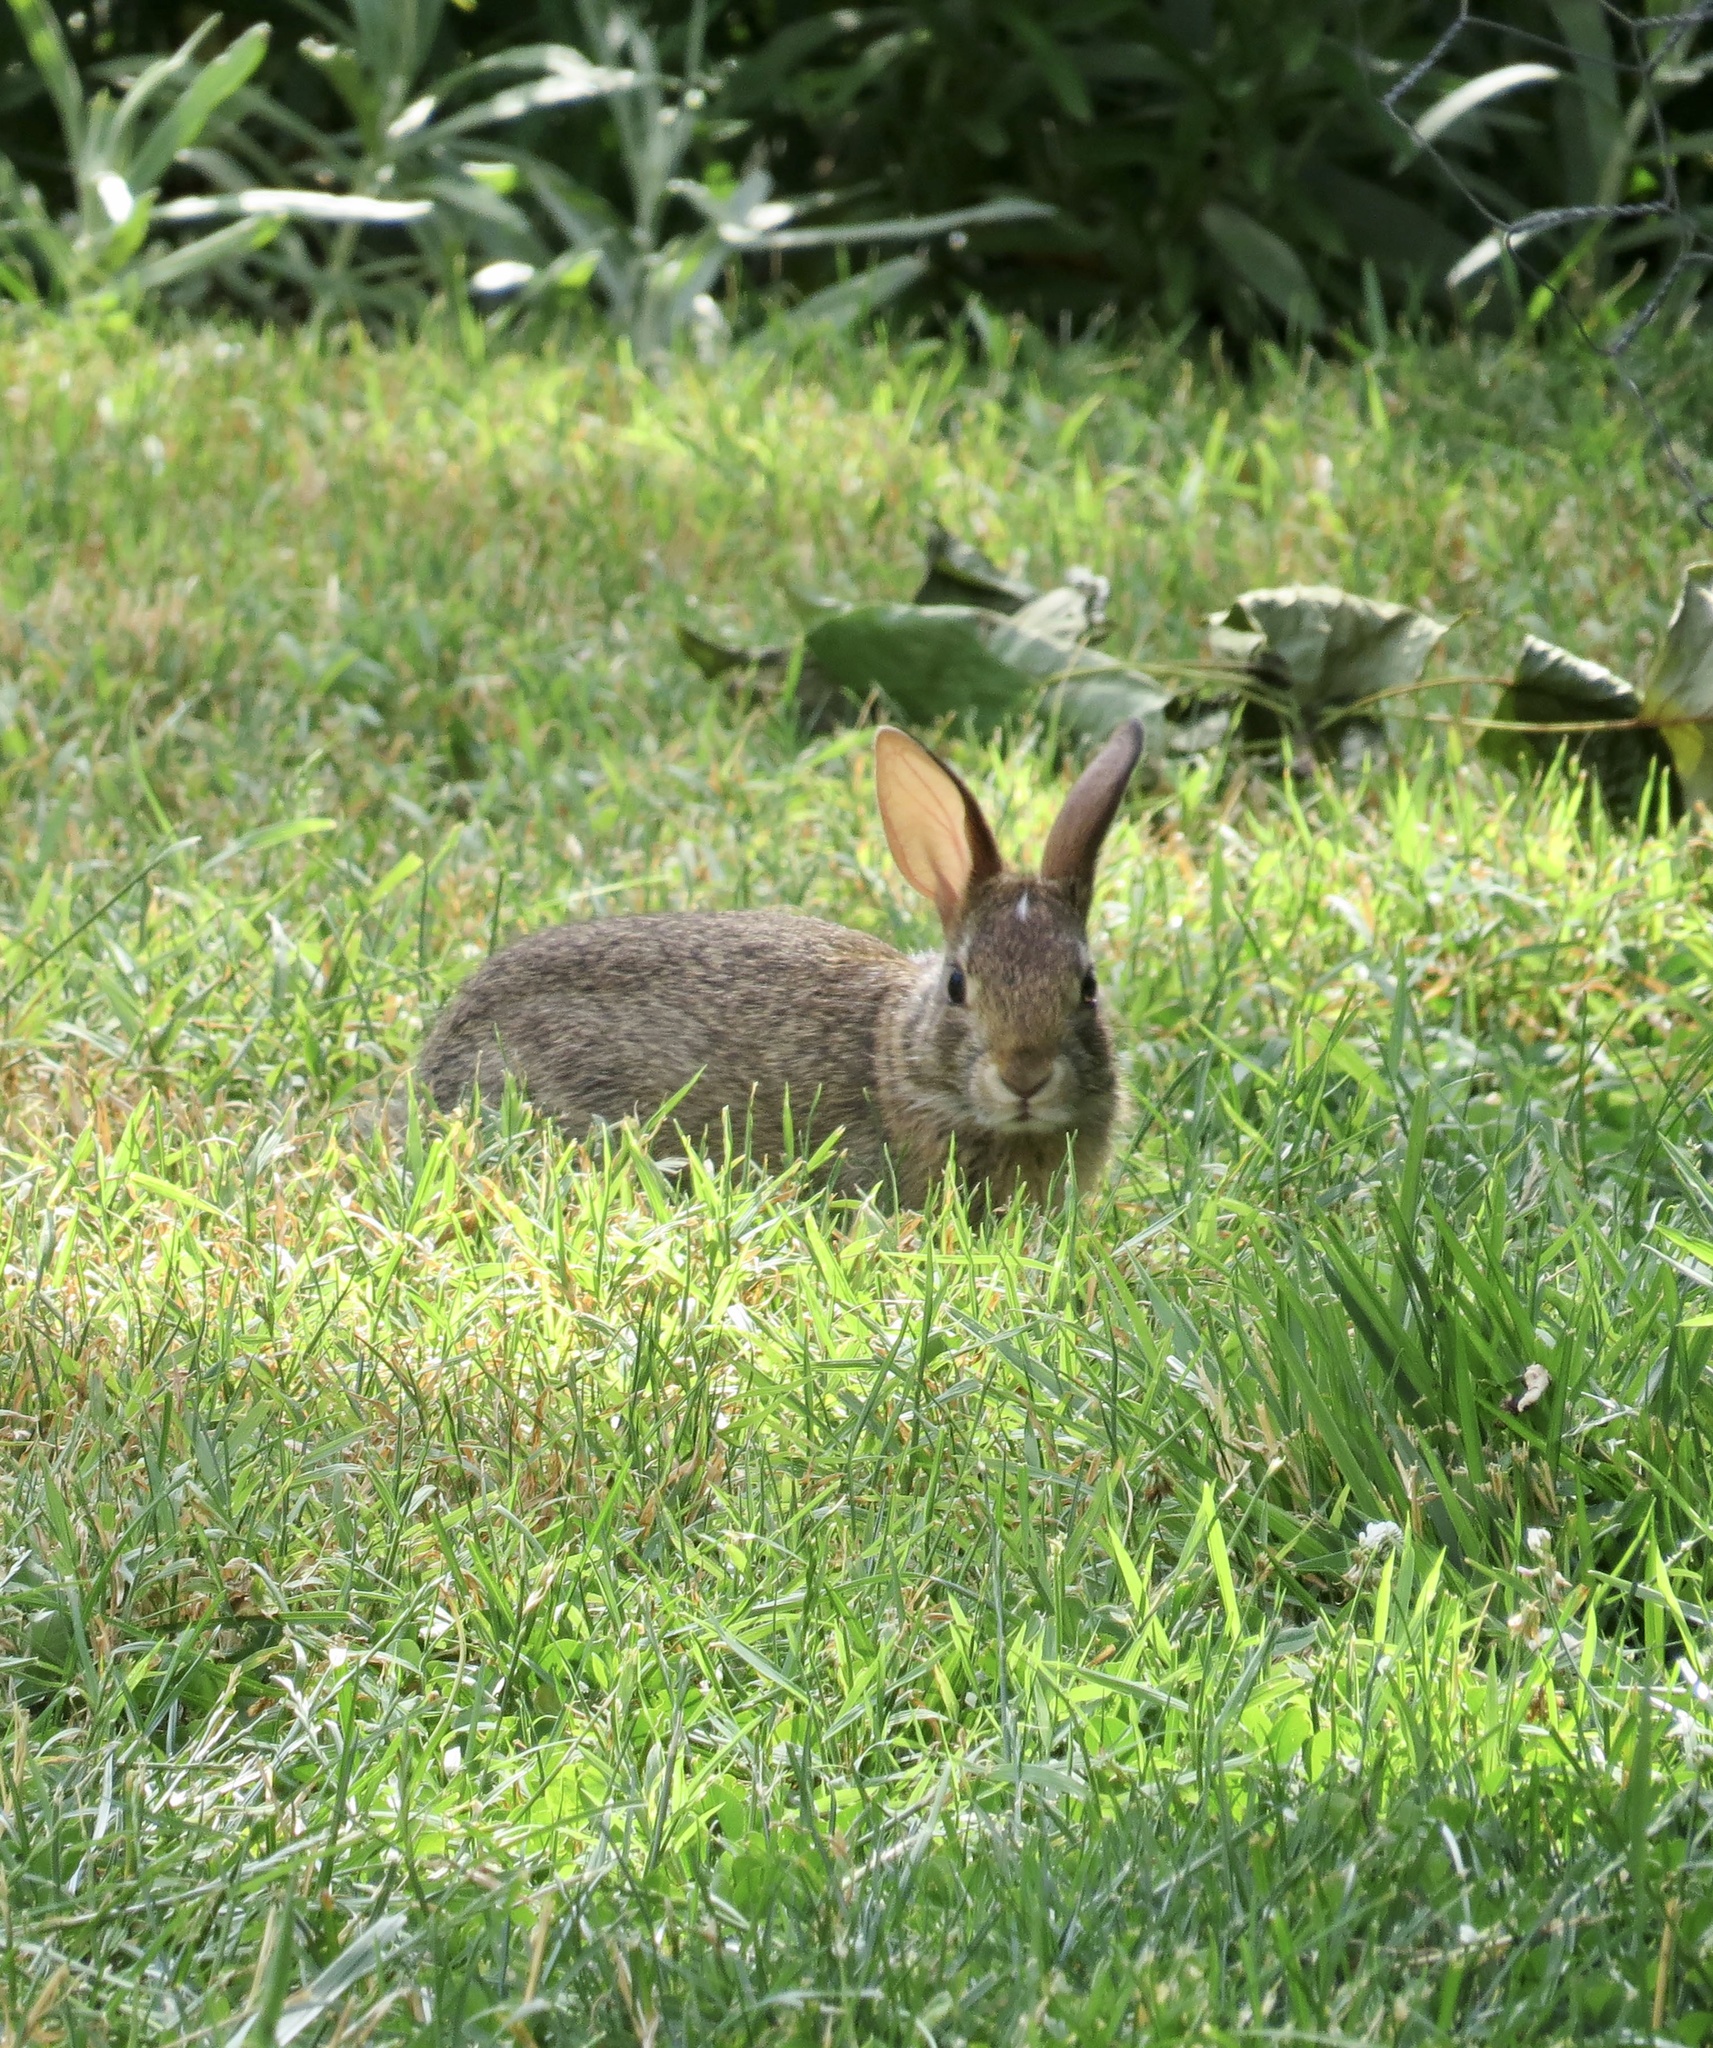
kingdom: Animalia
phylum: Chordata
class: Mammalia
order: Lagomorpha
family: Leporidae
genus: Sylvilagus
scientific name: Sylvilagus floridanus
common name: Eastern cottontail
